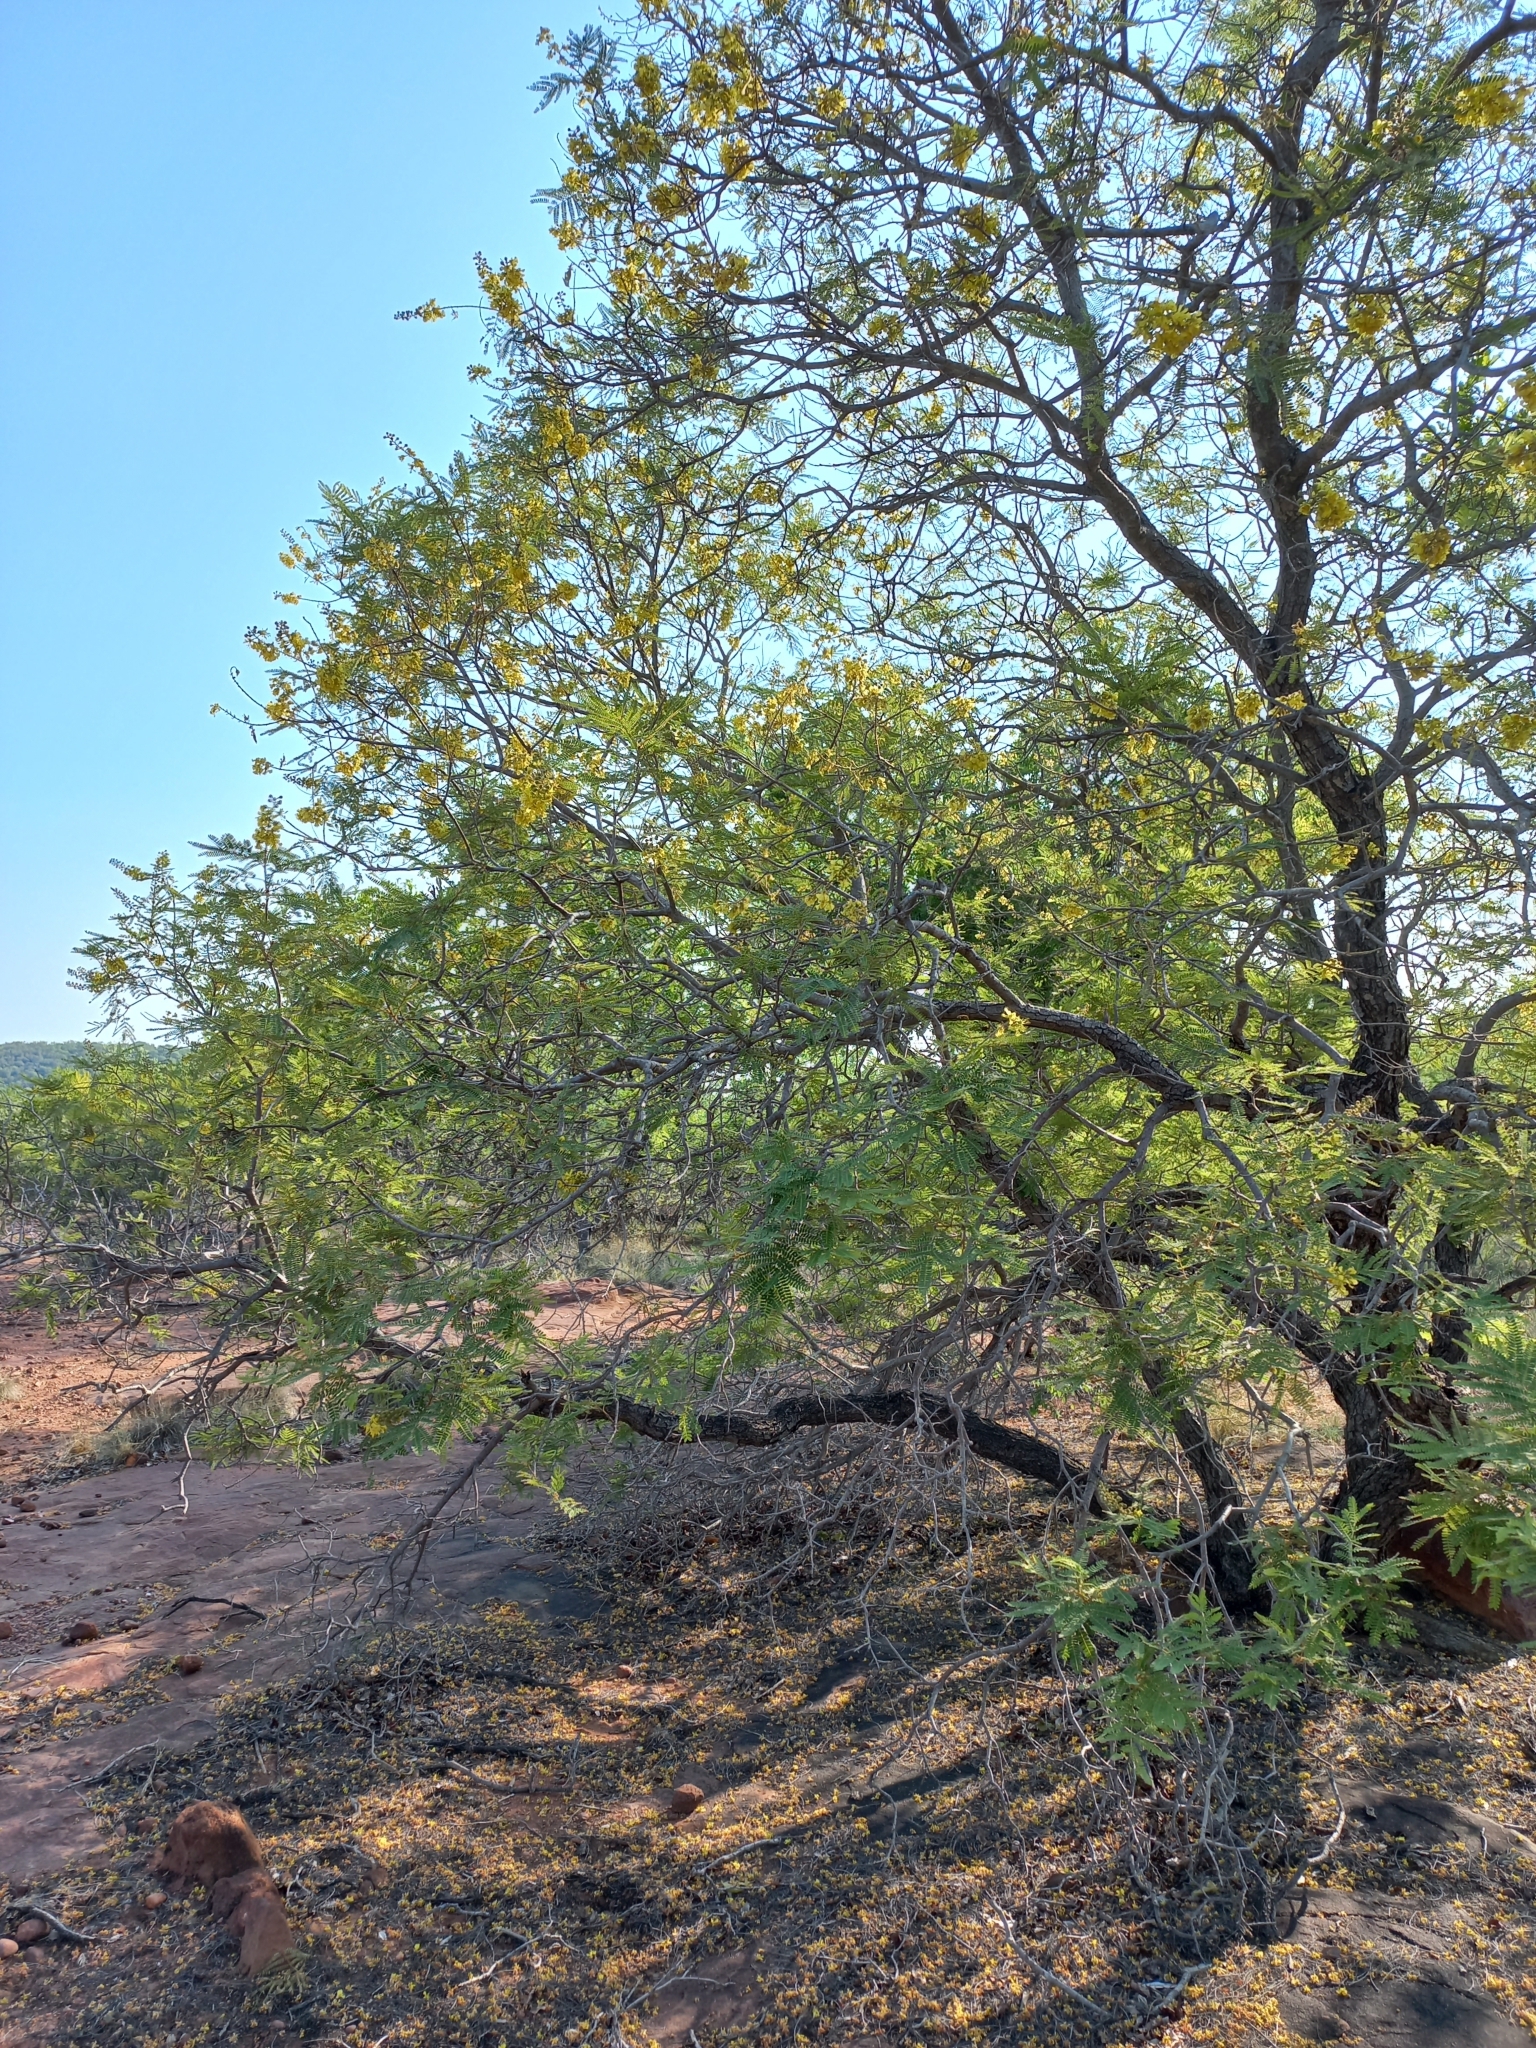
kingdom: Plantae
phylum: Tracheophyta
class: Magnoliopsida
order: Fabales
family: Fabaceae
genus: Peltophorum
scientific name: Peltophorum africanum
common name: African black wattle
